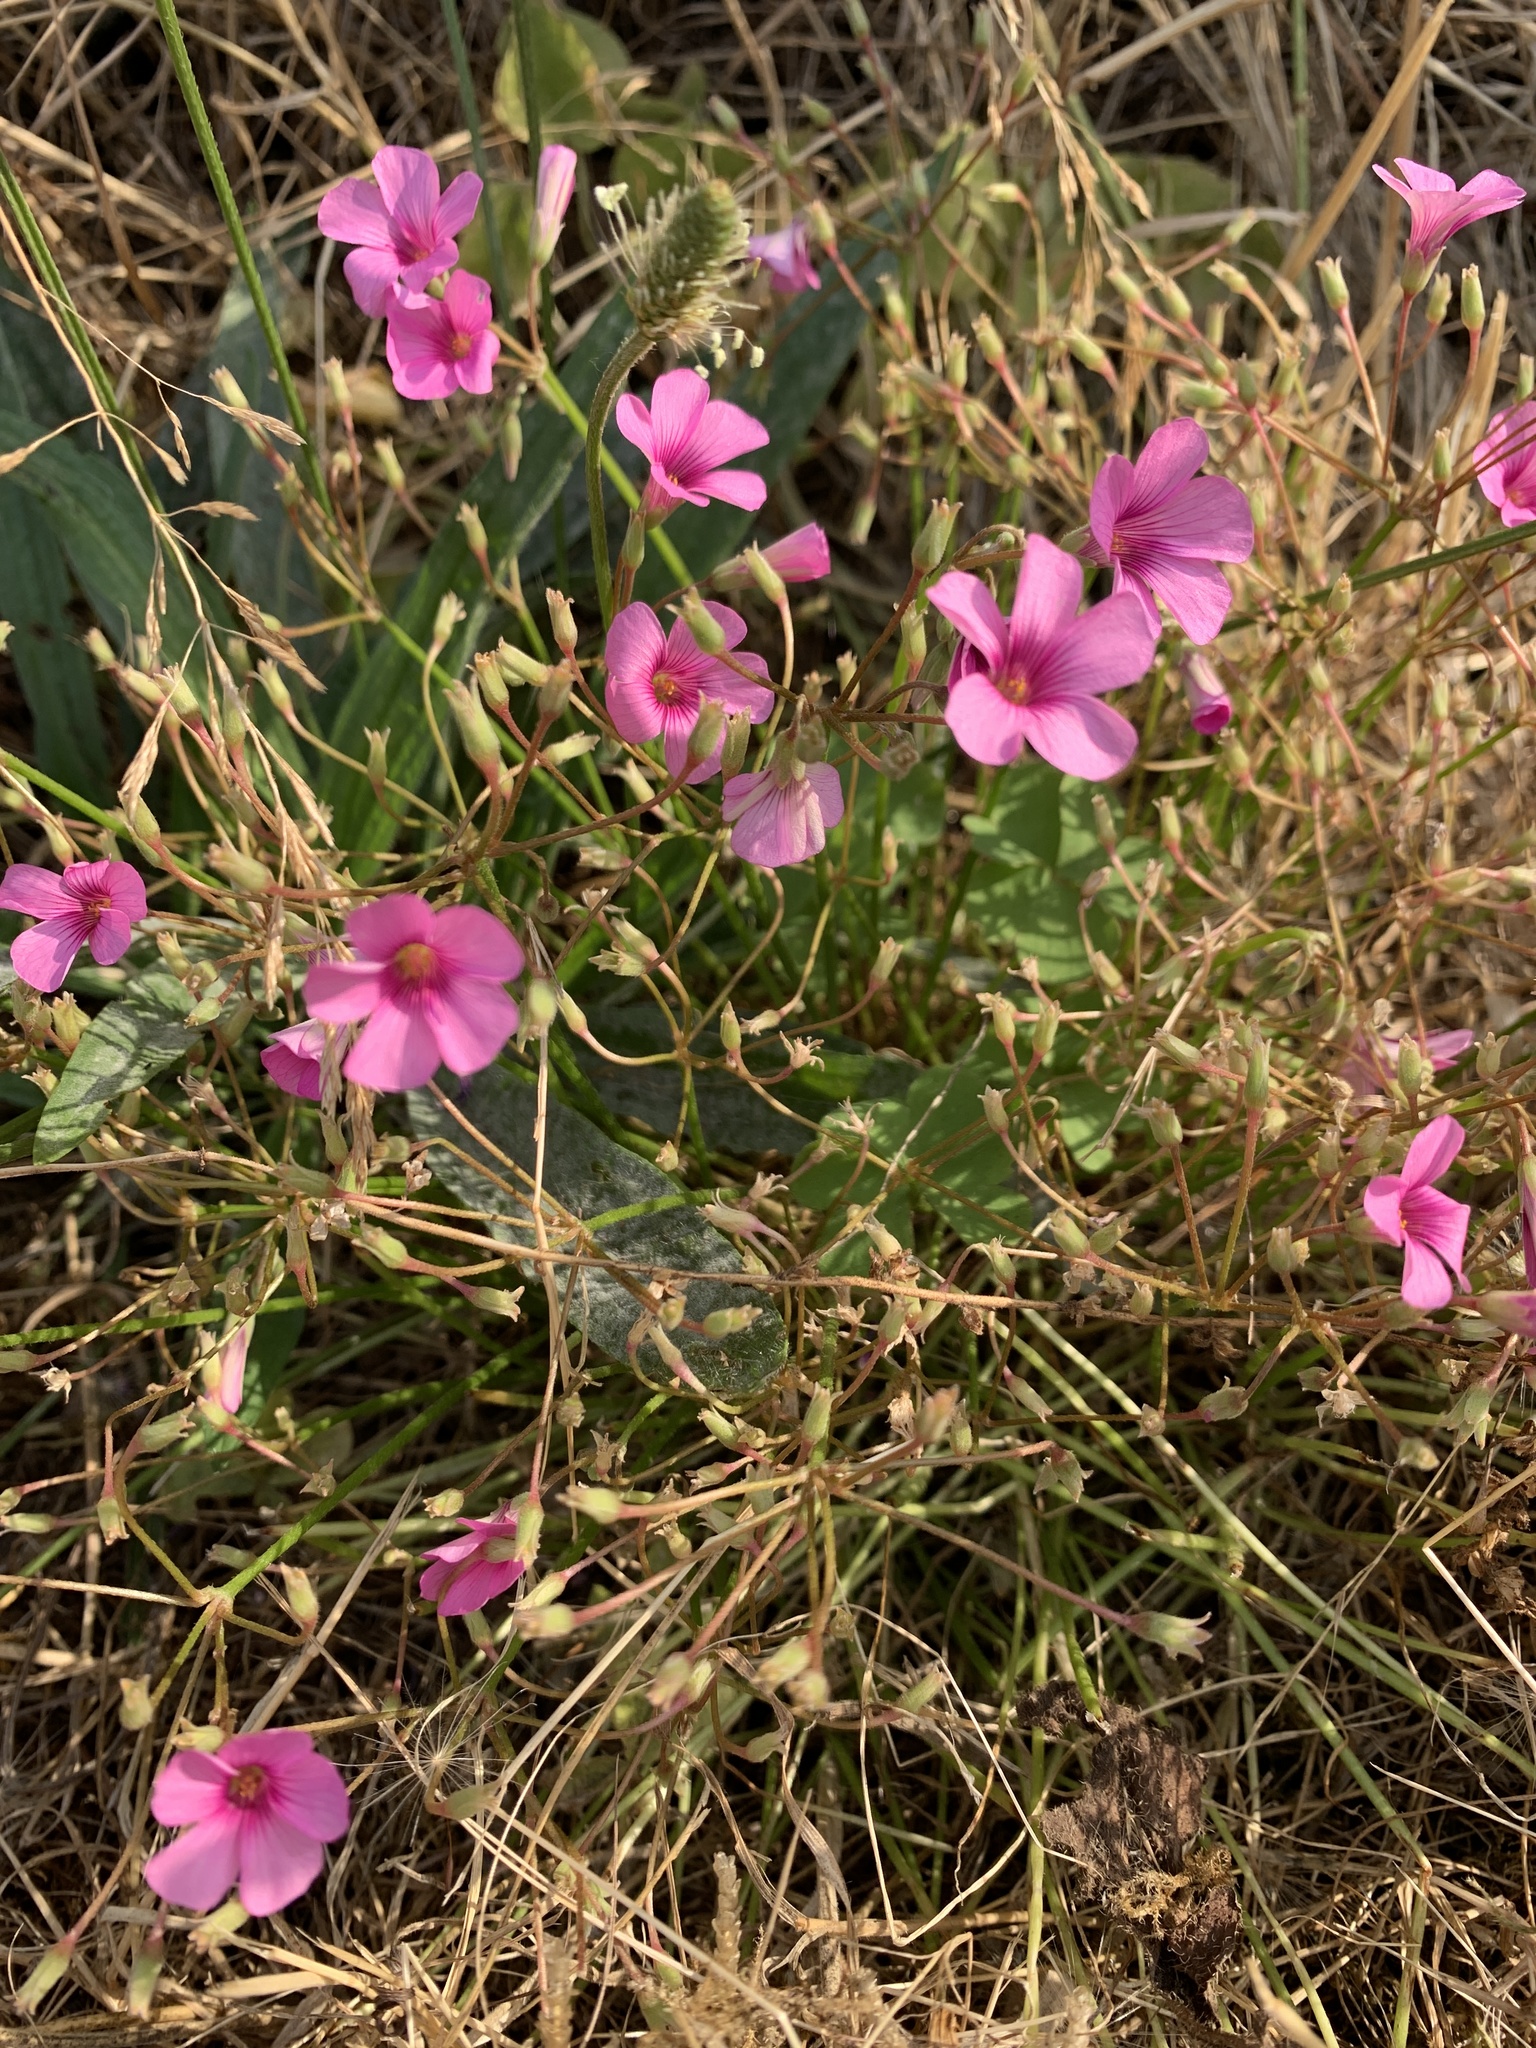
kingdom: Plantae
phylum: Tracheophyta
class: Magnoliopsida
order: Oxalidales
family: Oxalidaceae
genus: Oxalis
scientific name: Oxalis articulata
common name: Pink-sorrel
